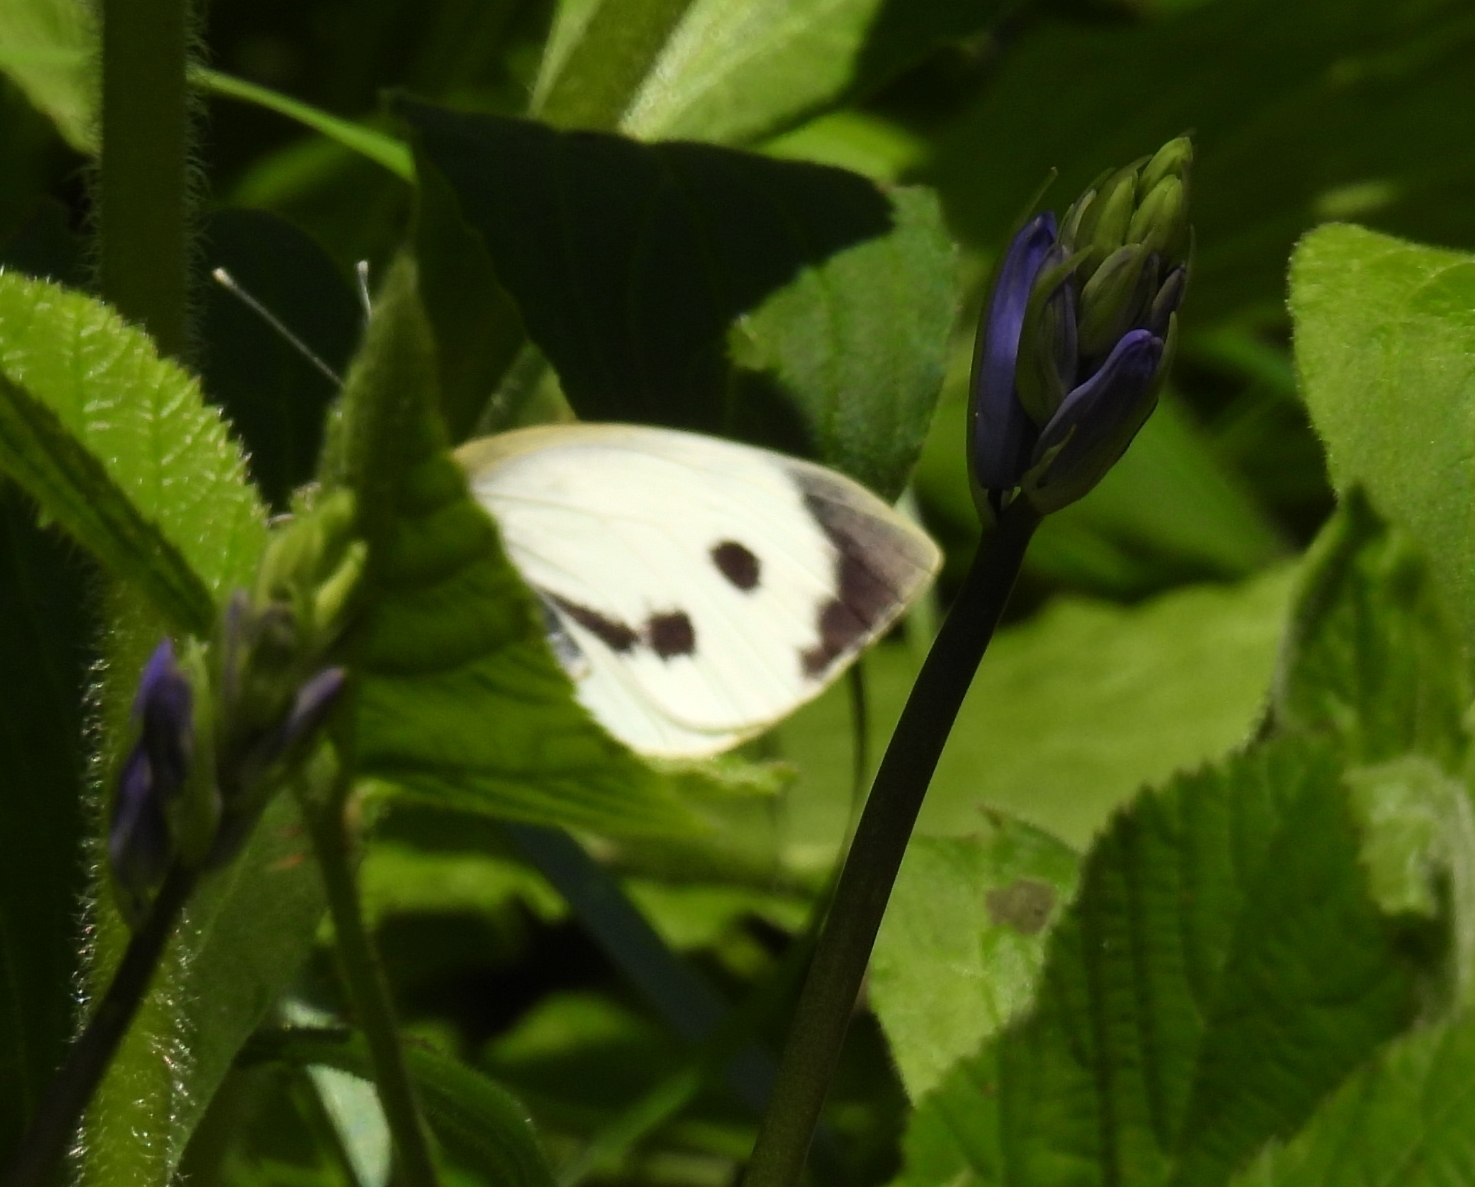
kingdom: Animalia
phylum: Arthropoda
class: Insecta
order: Lepidoptera
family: Pieridae
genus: Pieris
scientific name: Pieris brassicae
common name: Large white
